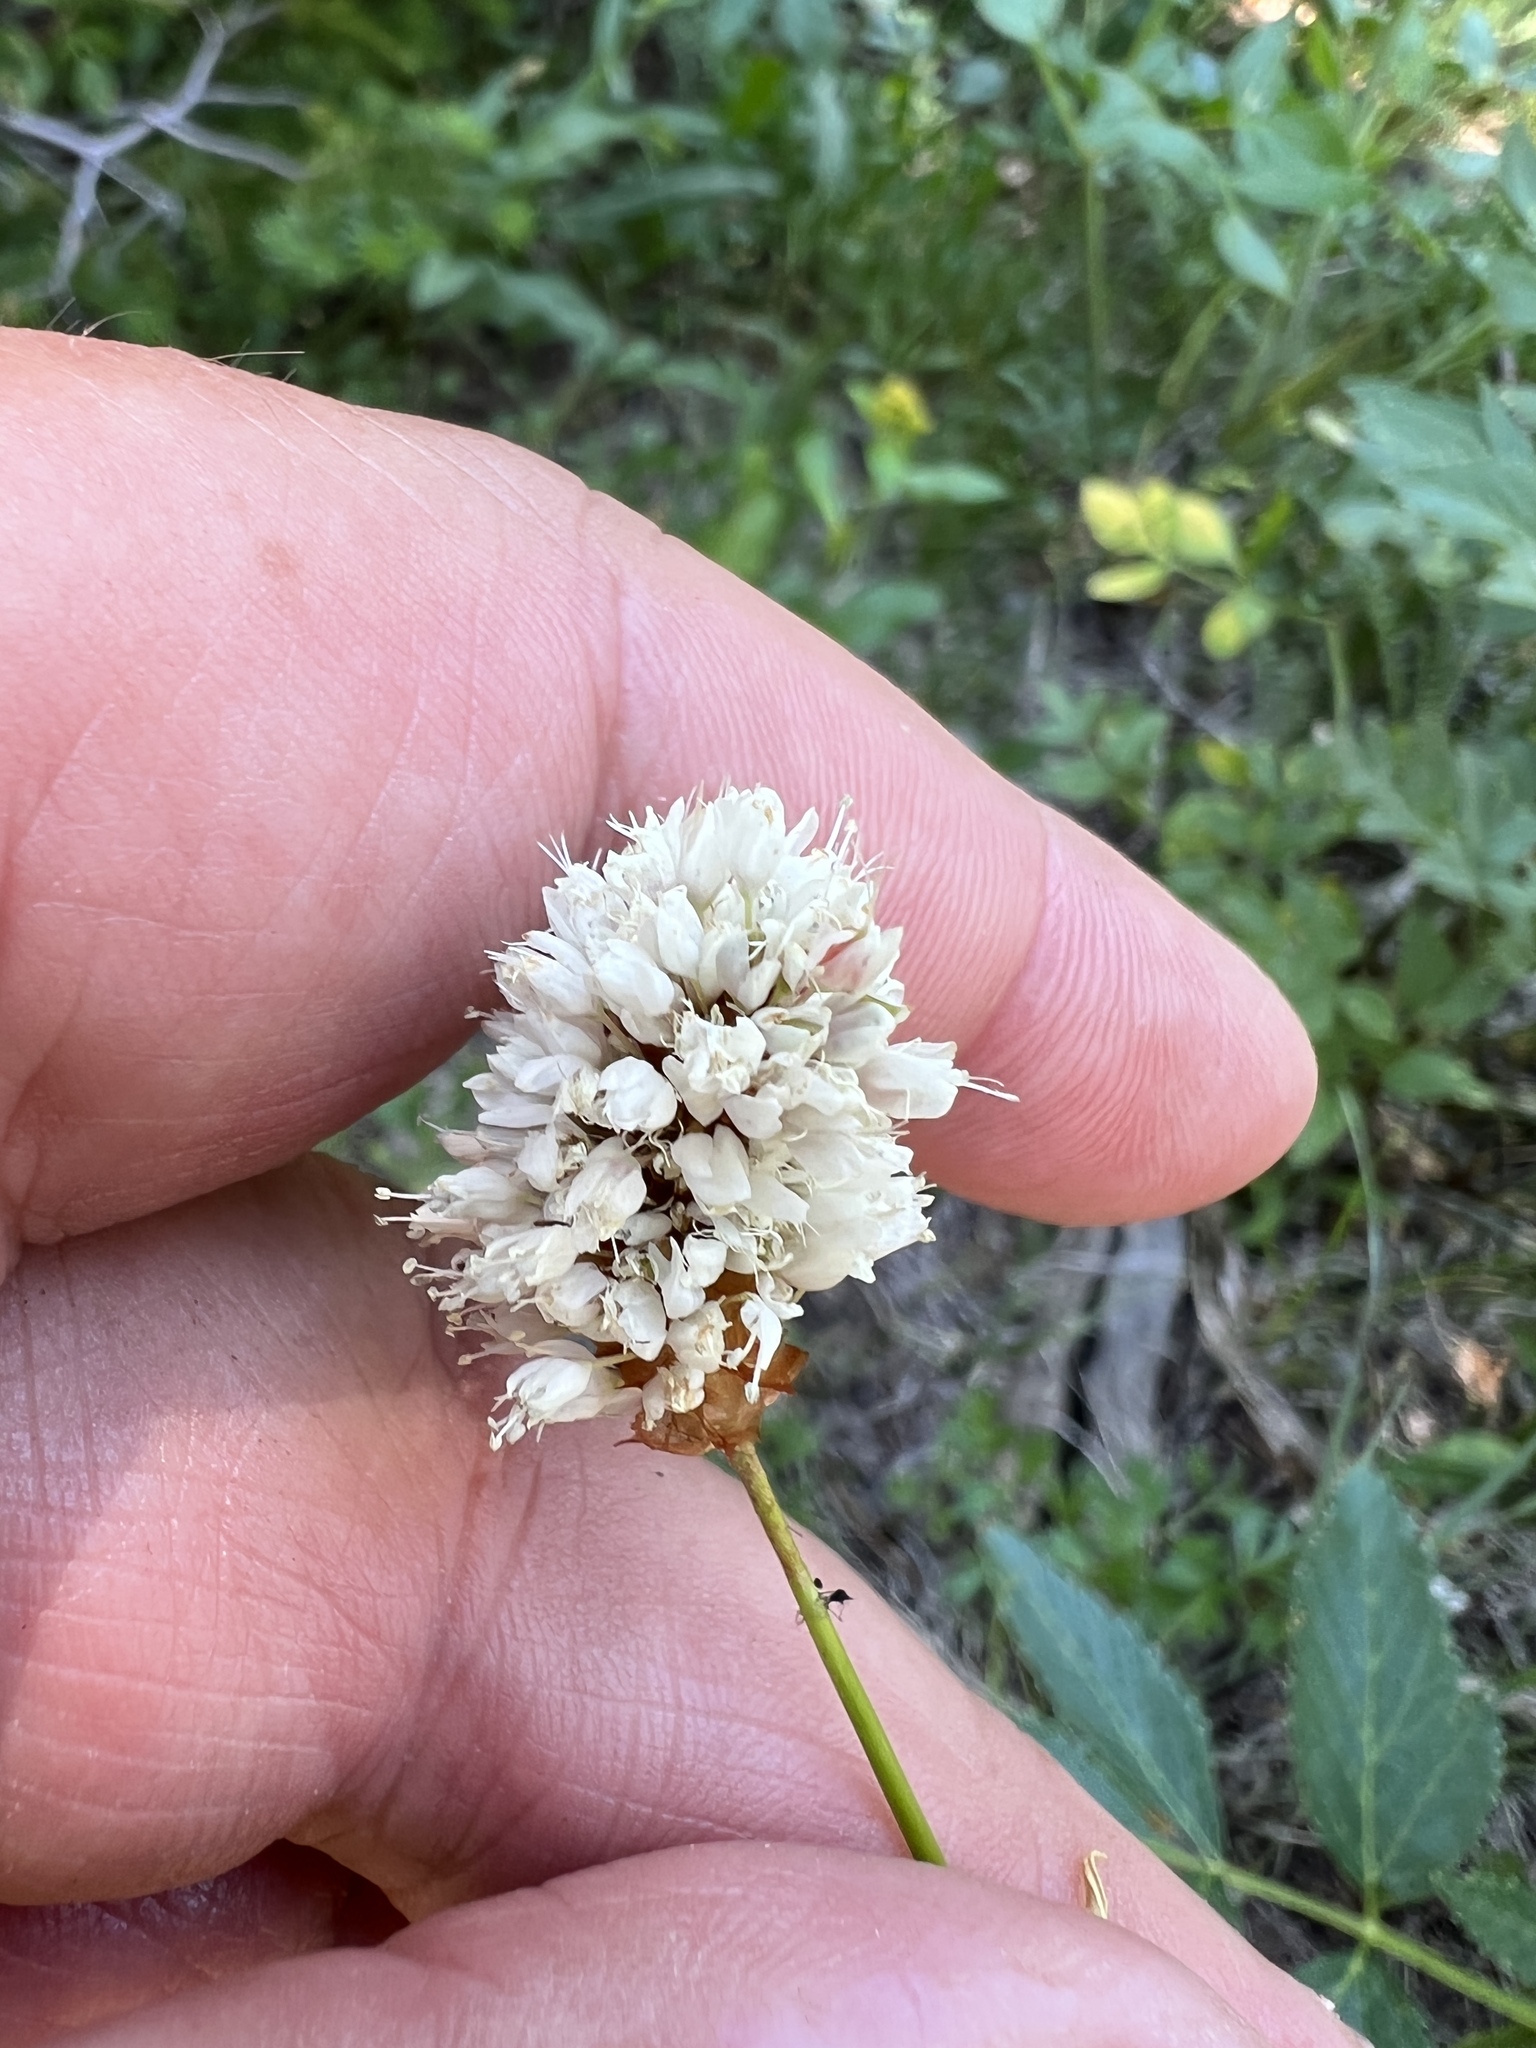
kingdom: Plantae
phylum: Tracheophyta
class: Magnoliopsida
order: Caryophyllales
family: Polygonaceae
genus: Bistorta
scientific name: Bistorta bistortoides
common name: American bistort
